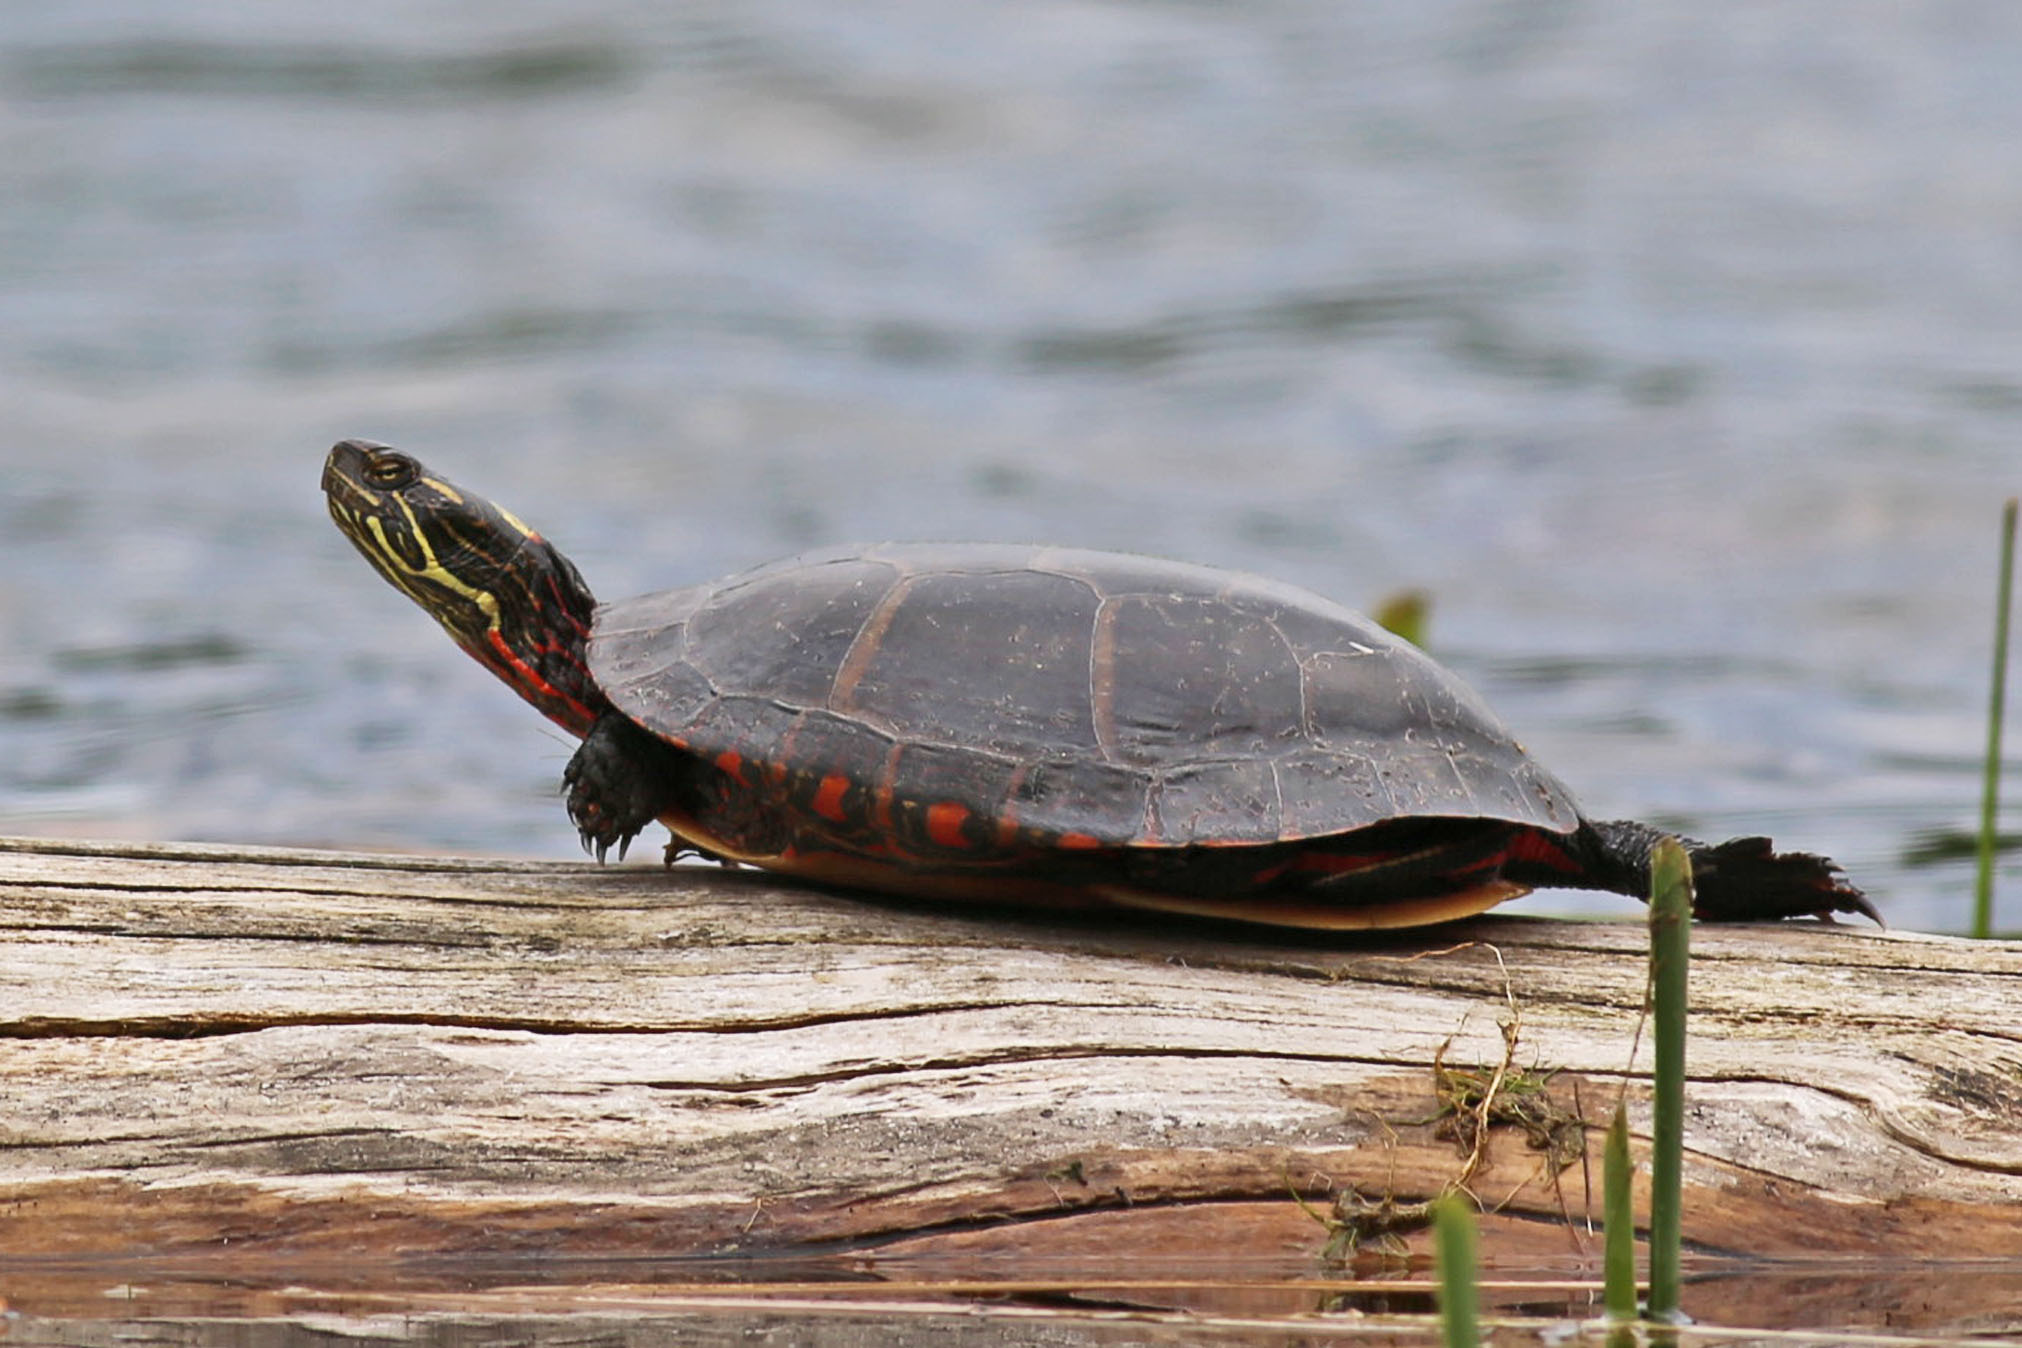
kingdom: Animalia
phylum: Chordata
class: Testudines
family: Emydidae
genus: Chrysemys
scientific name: Chrysemys picta
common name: Painted turtle
